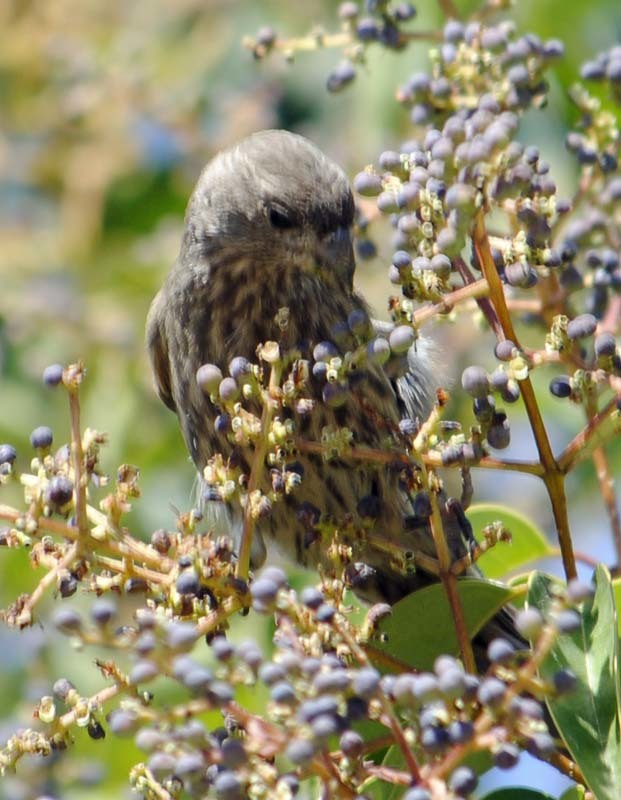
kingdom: Animalia
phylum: Chordata
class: Aves
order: Passeriformes
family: Fringillidae
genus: Haemorhous
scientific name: Haemorhous mexicanus
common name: House finch
